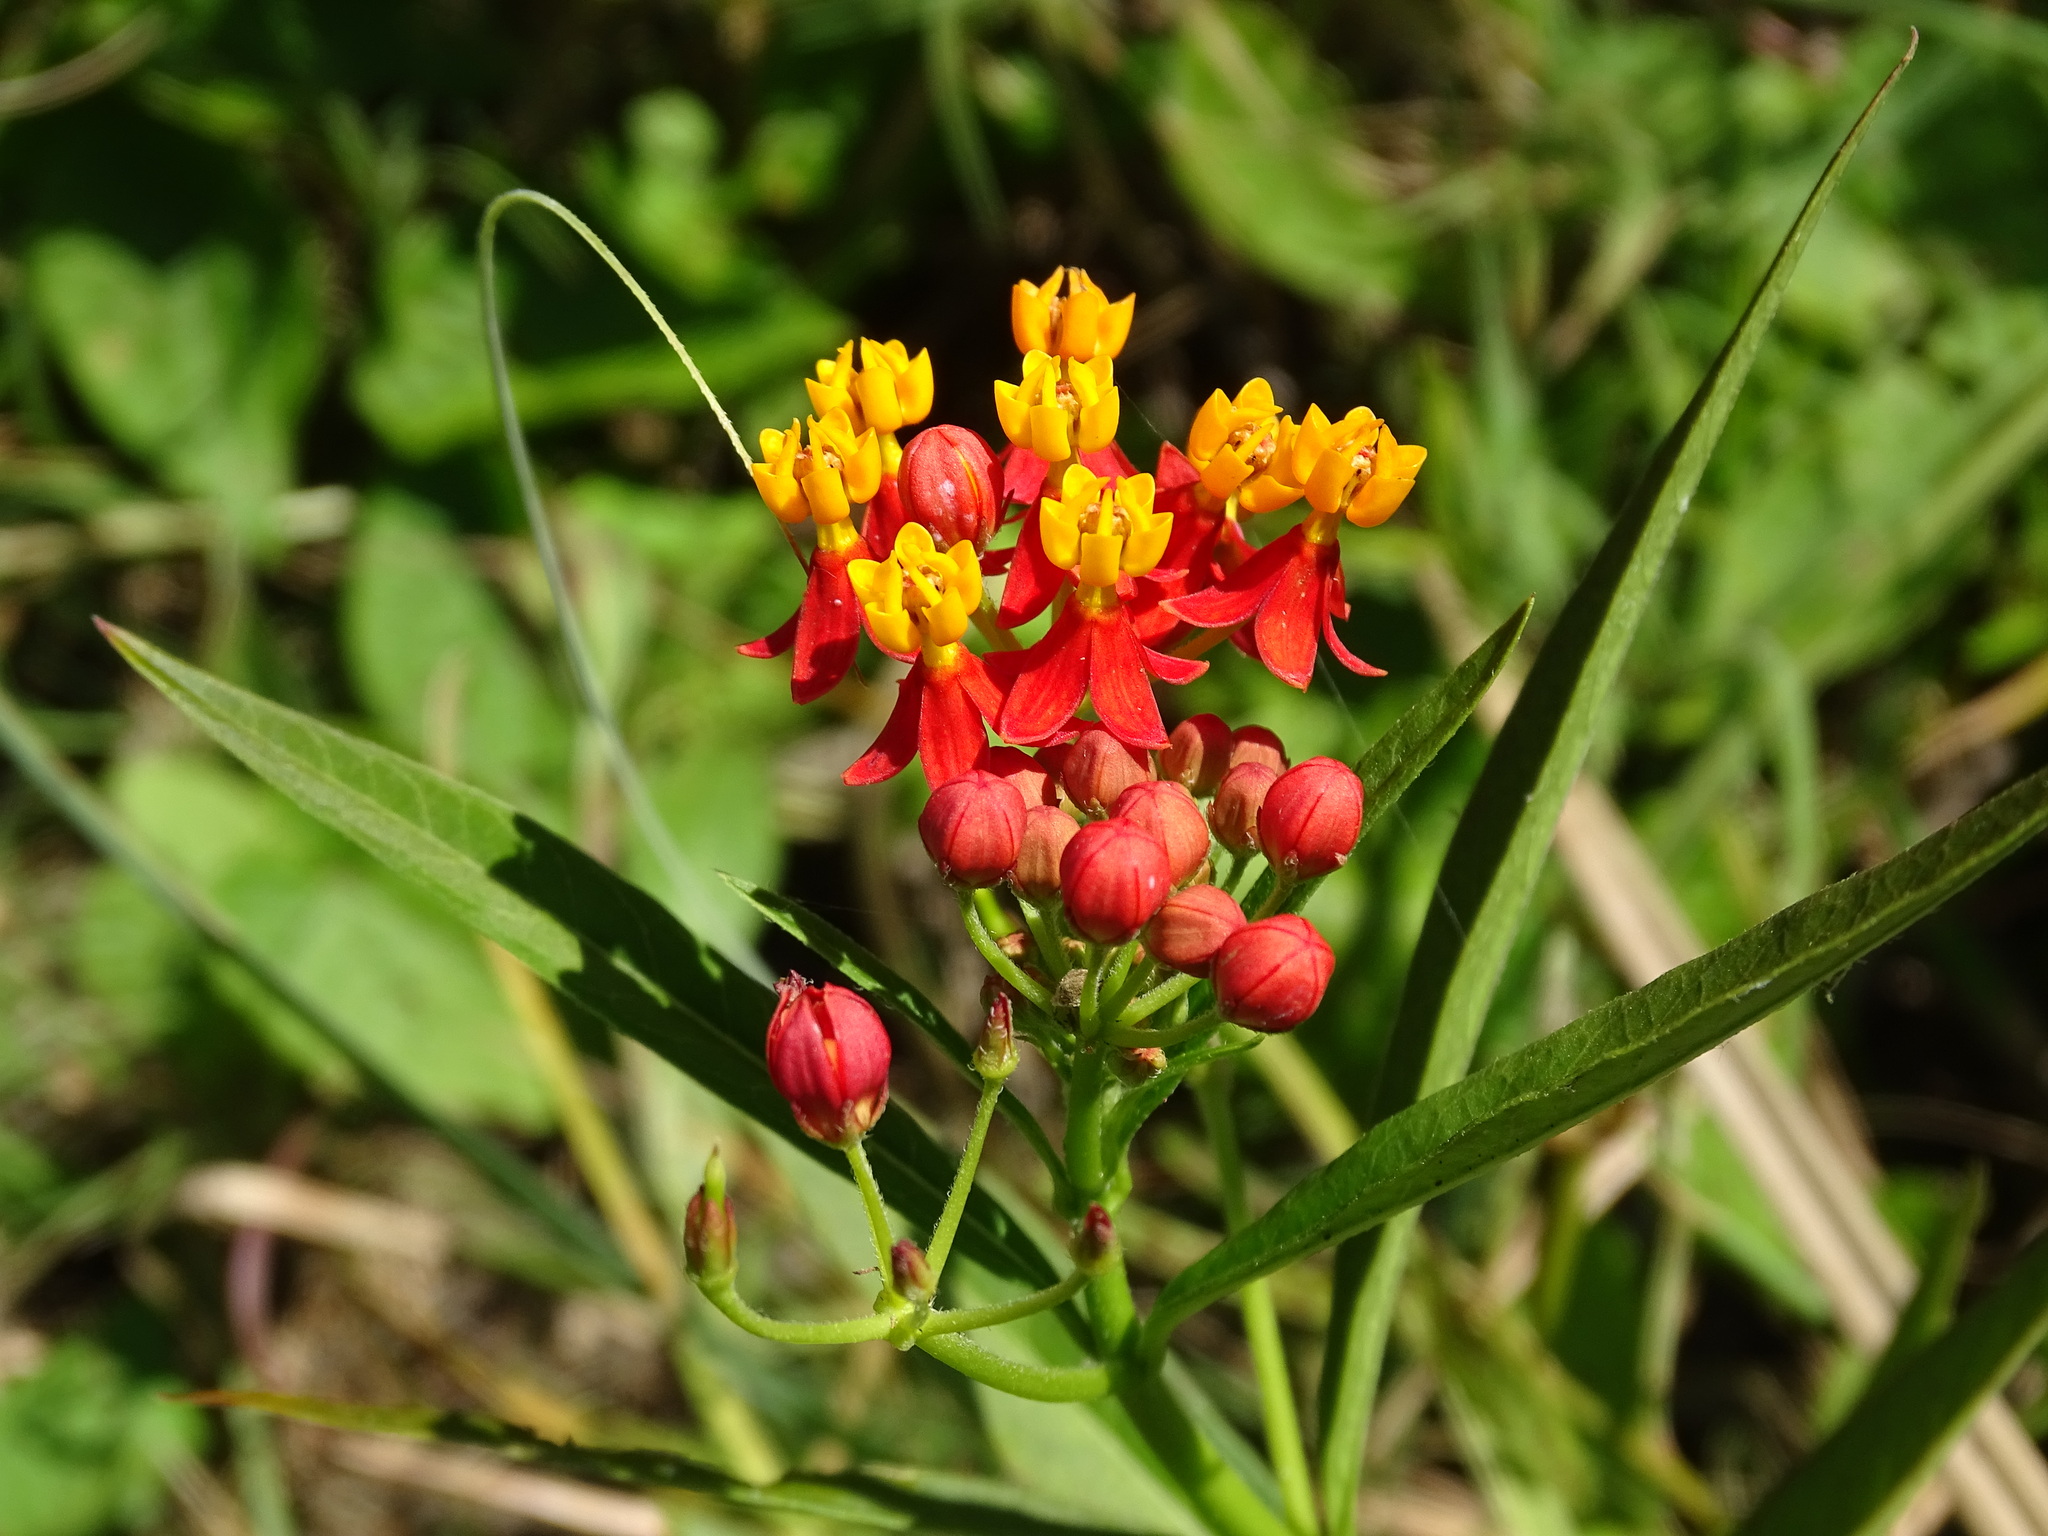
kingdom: Plantae
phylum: Tracheophyta
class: Magnoliopsida
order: Gentianales
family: Apocynaceae
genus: Asclepias
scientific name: Asclepias curassavica
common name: Bloodflower
